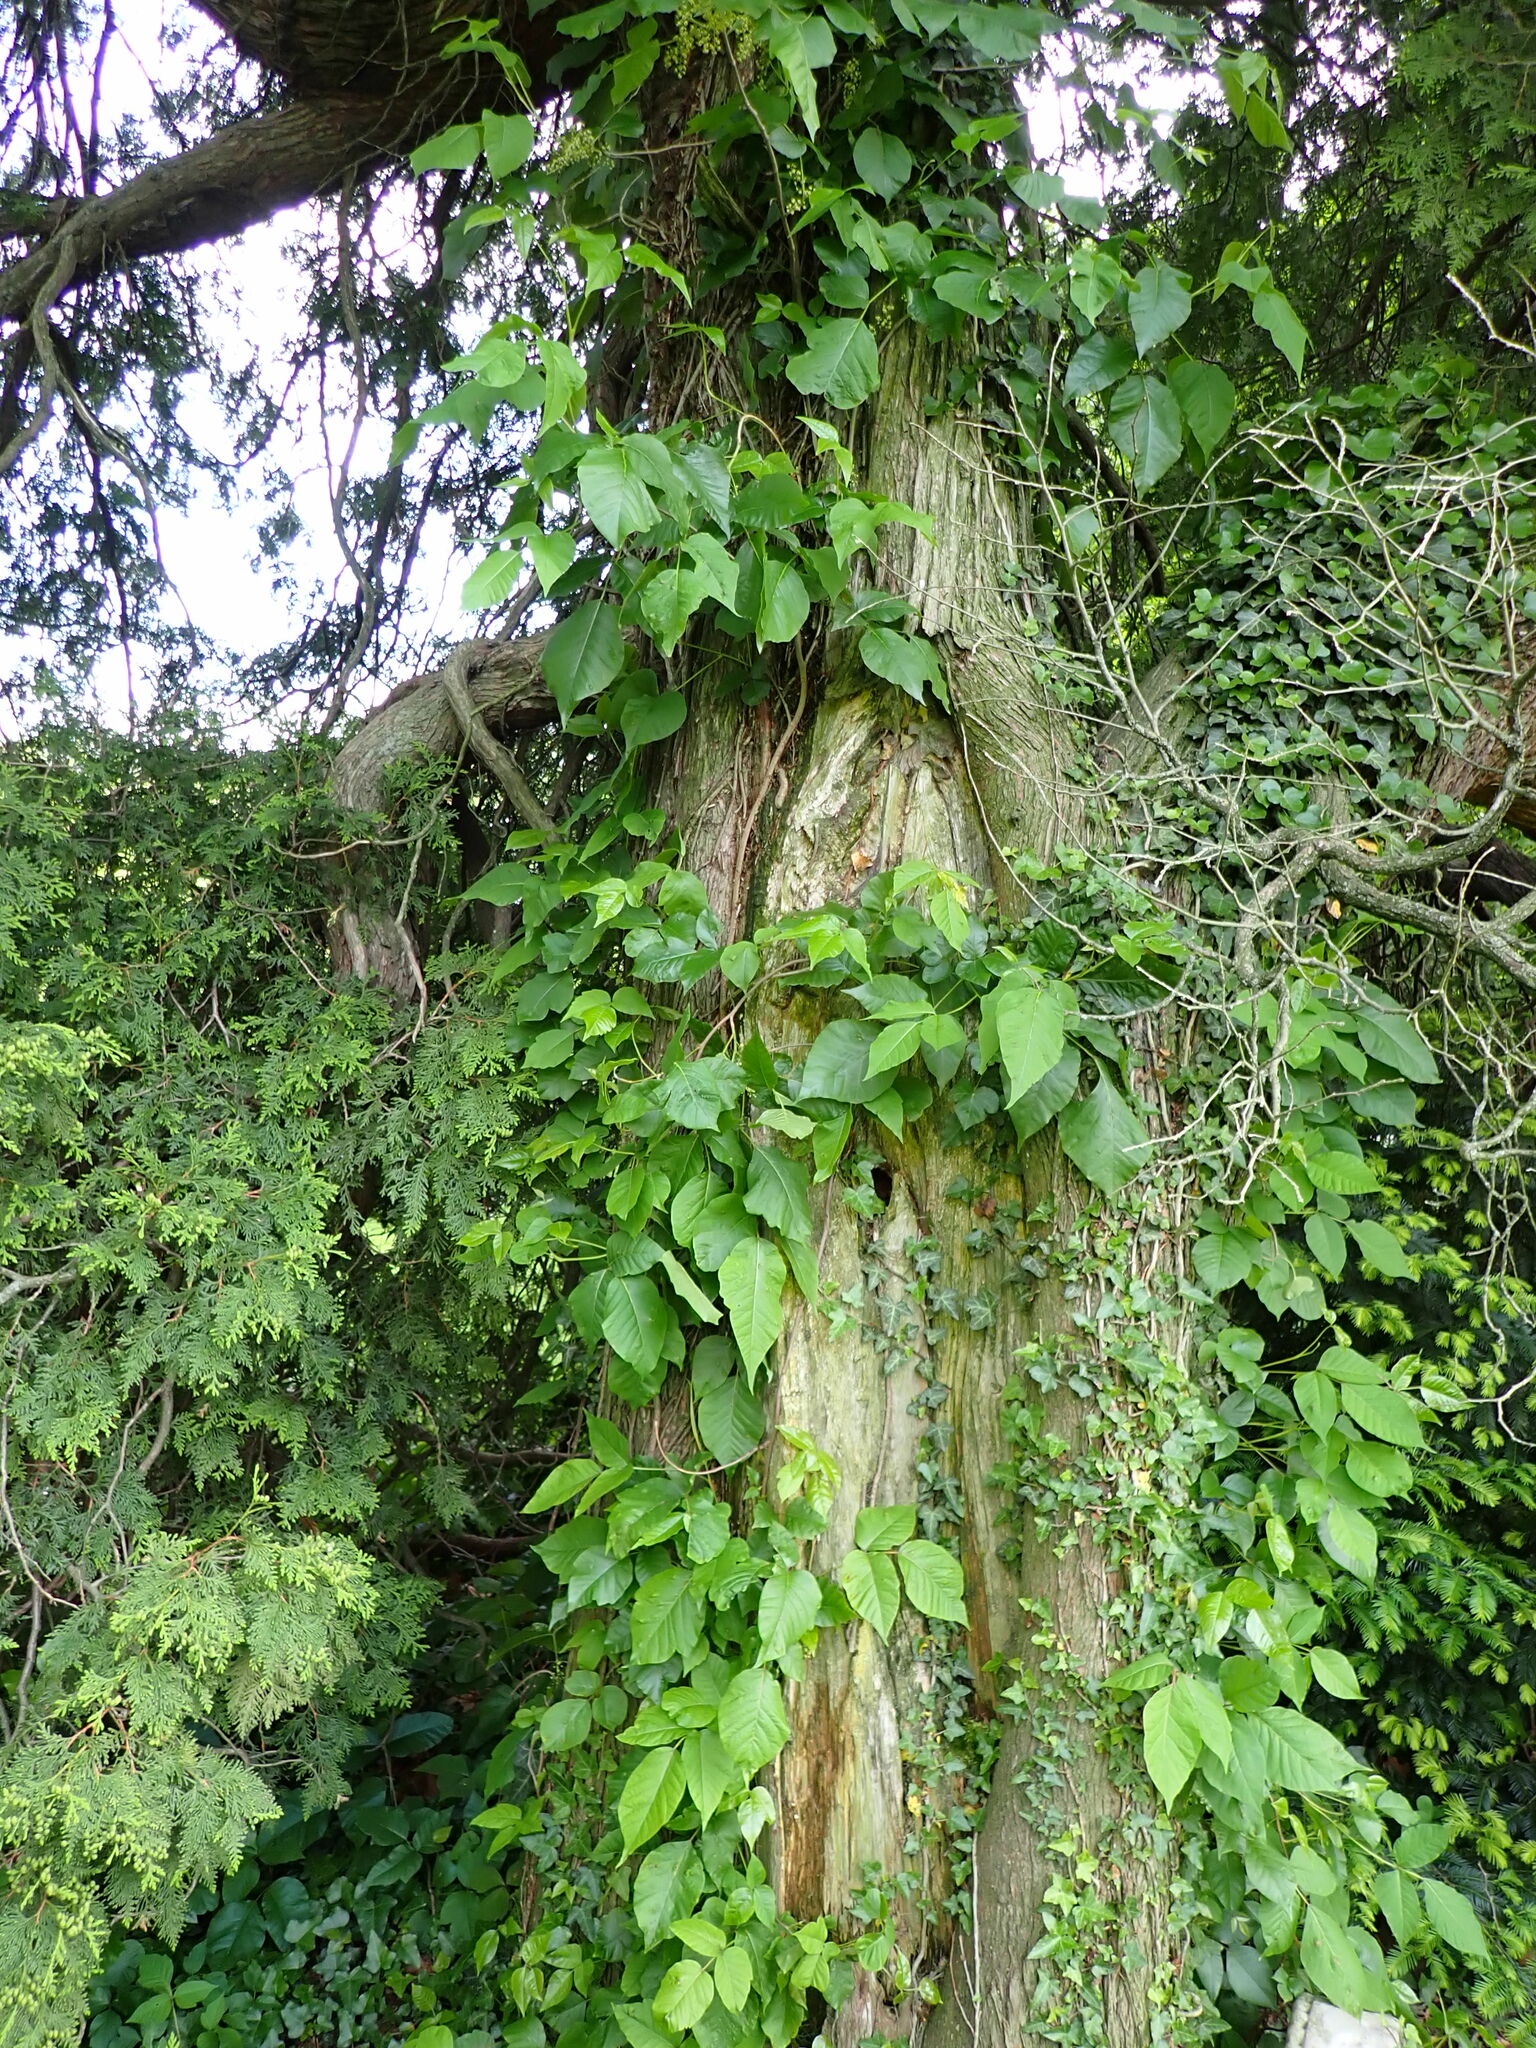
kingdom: Plantae
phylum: Tracheophyta
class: Magnoliopsida
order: Sapindales
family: Anacardiaceae
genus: Toxicodendron
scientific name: Toxicodendron radicans
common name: Poison ivy
